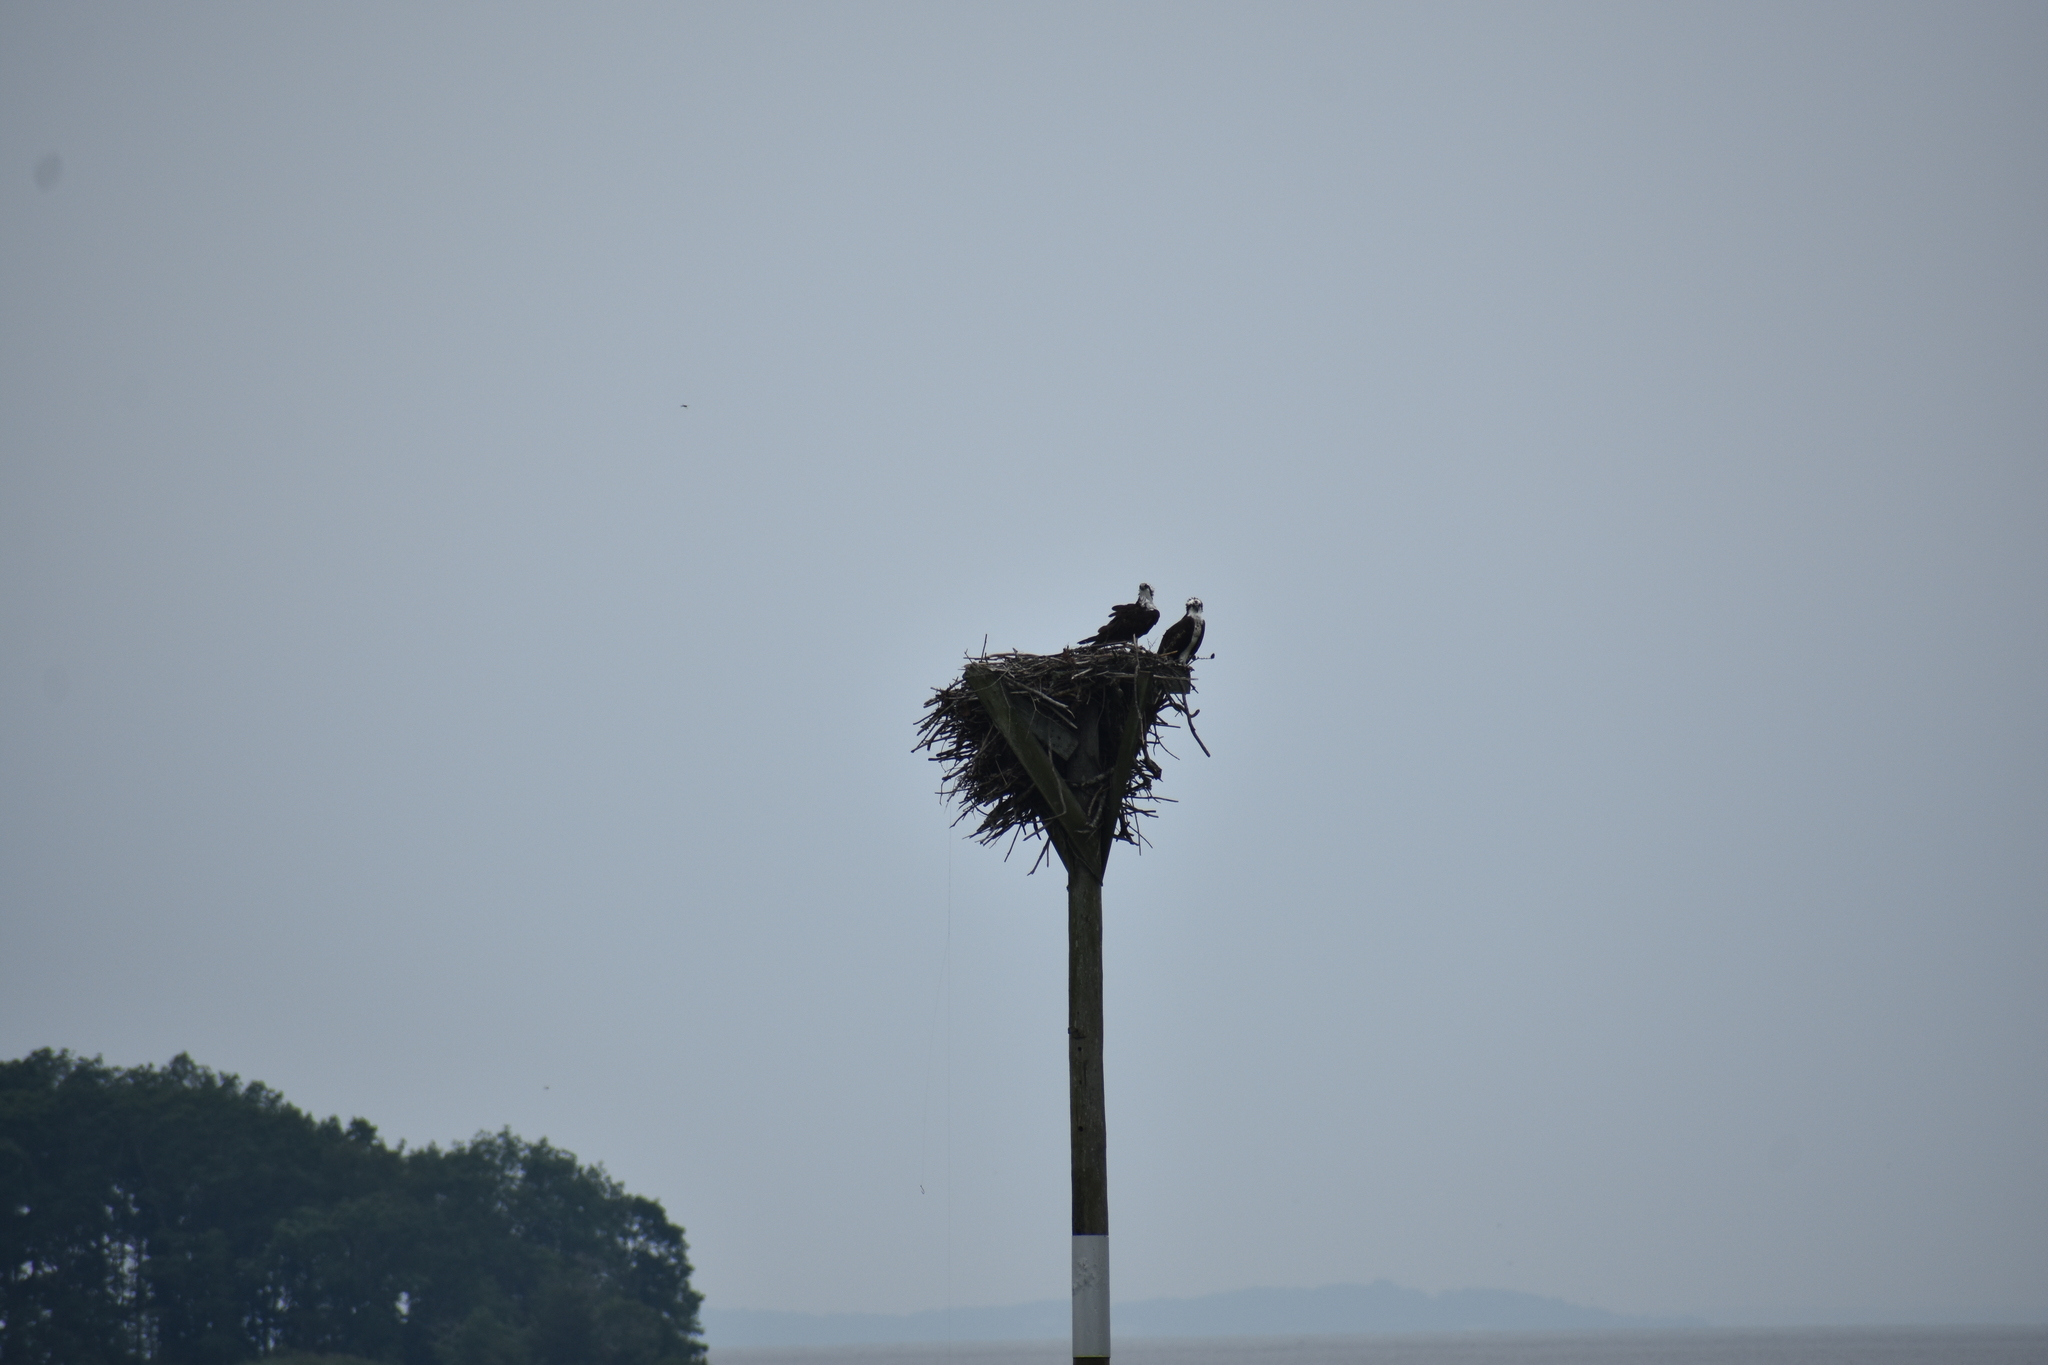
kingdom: Animalia
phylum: Chordata
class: Aves
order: Accipitriformes
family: Pandionidae
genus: Pandion
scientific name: Pandion haliaetus
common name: Osprey
